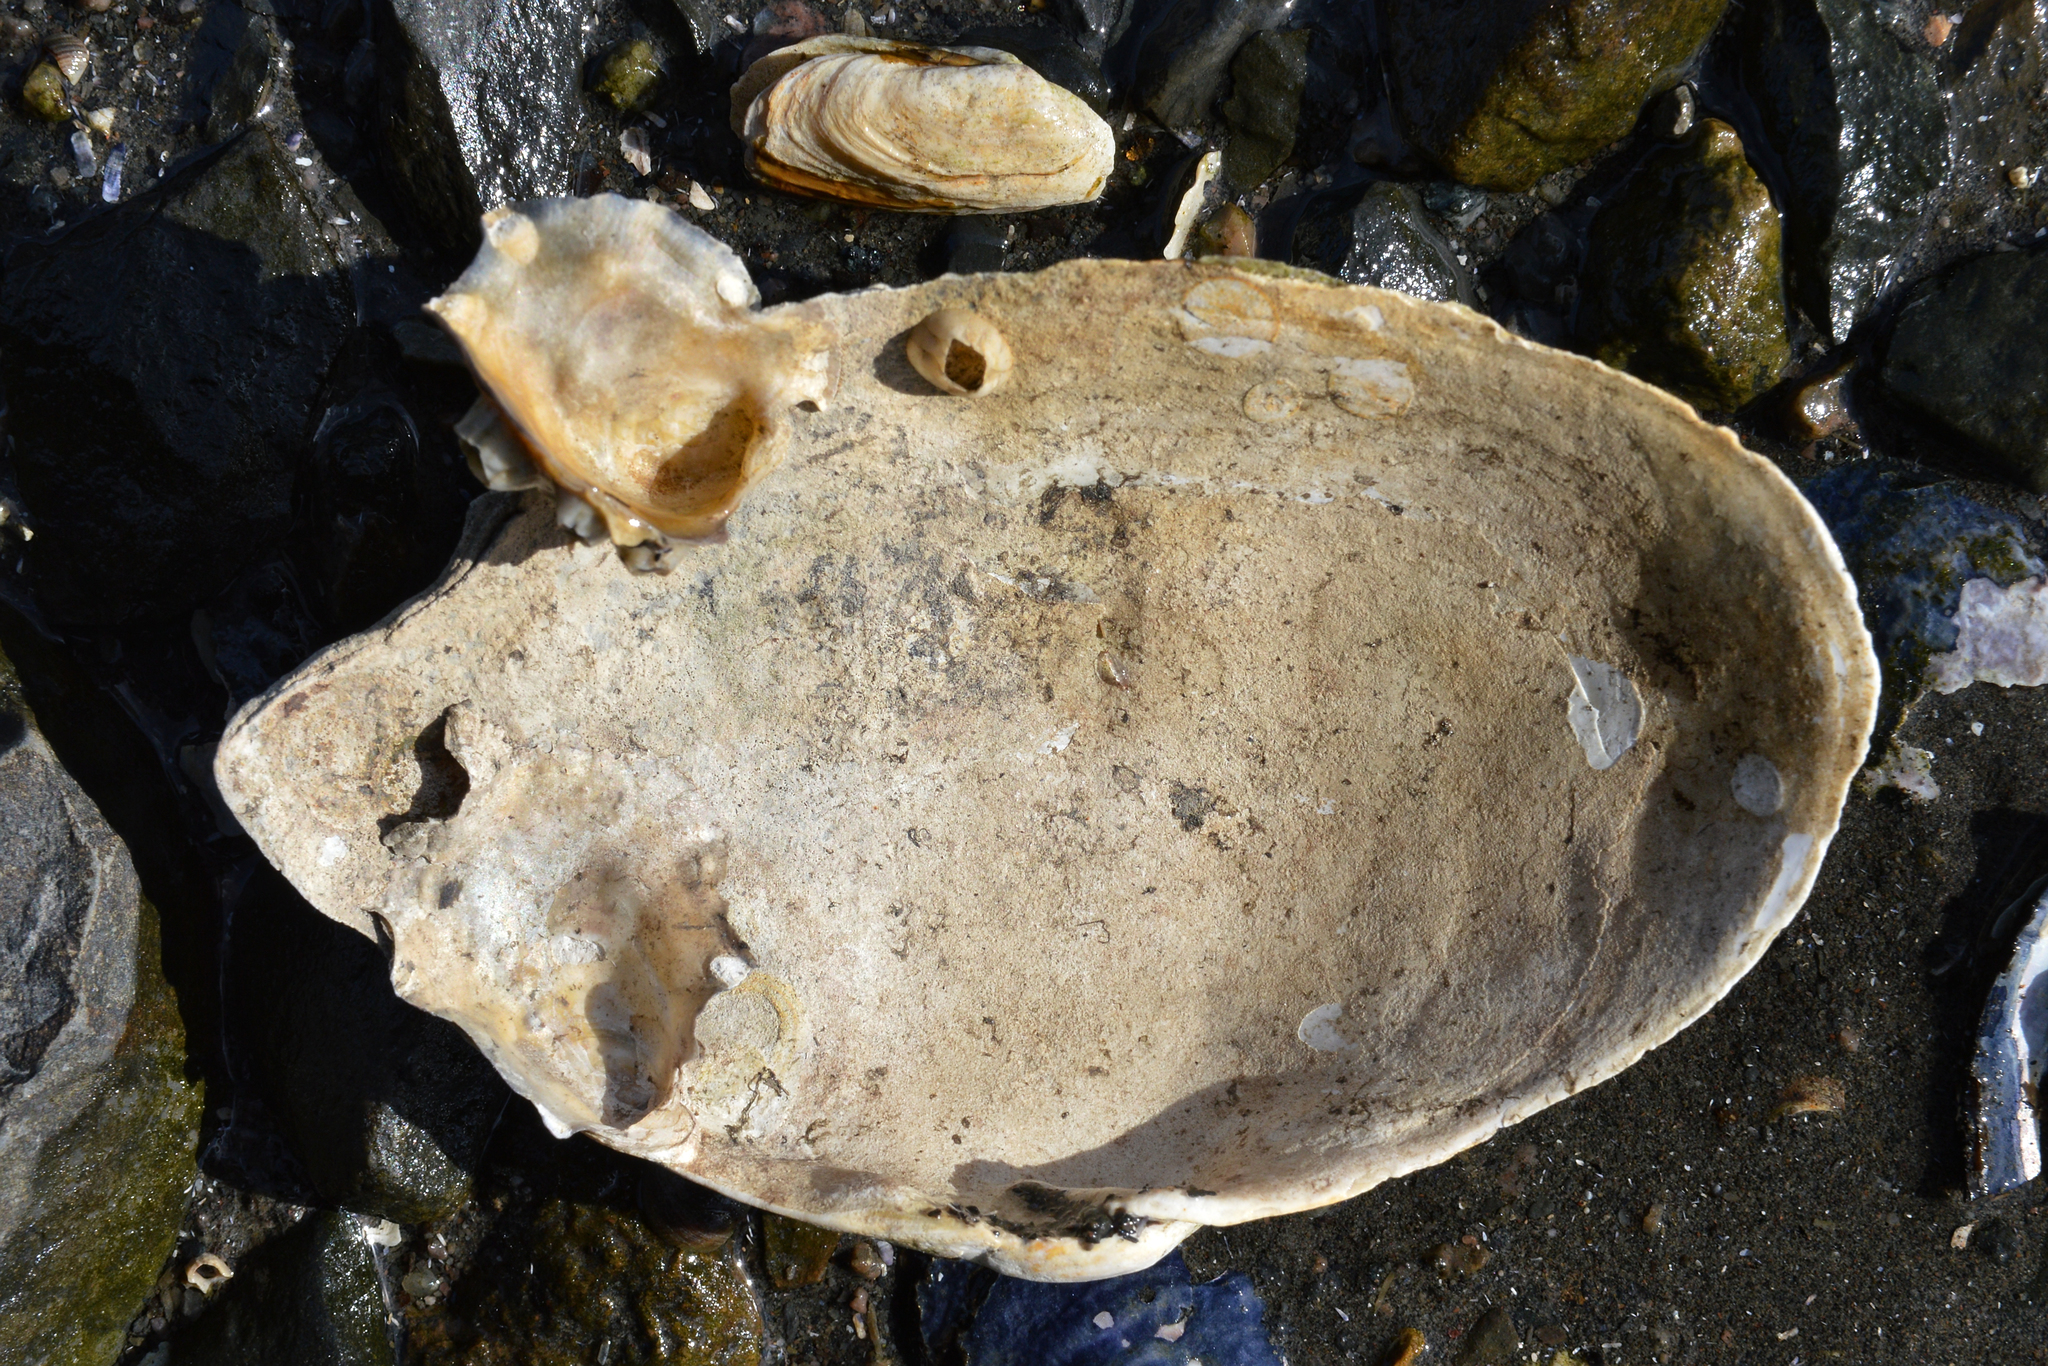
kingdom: Animalia
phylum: Mollusca
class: Bivalvia
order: Myida
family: Myidae
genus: Mya
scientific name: Mya arenaria
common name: Soft-shelled clam
